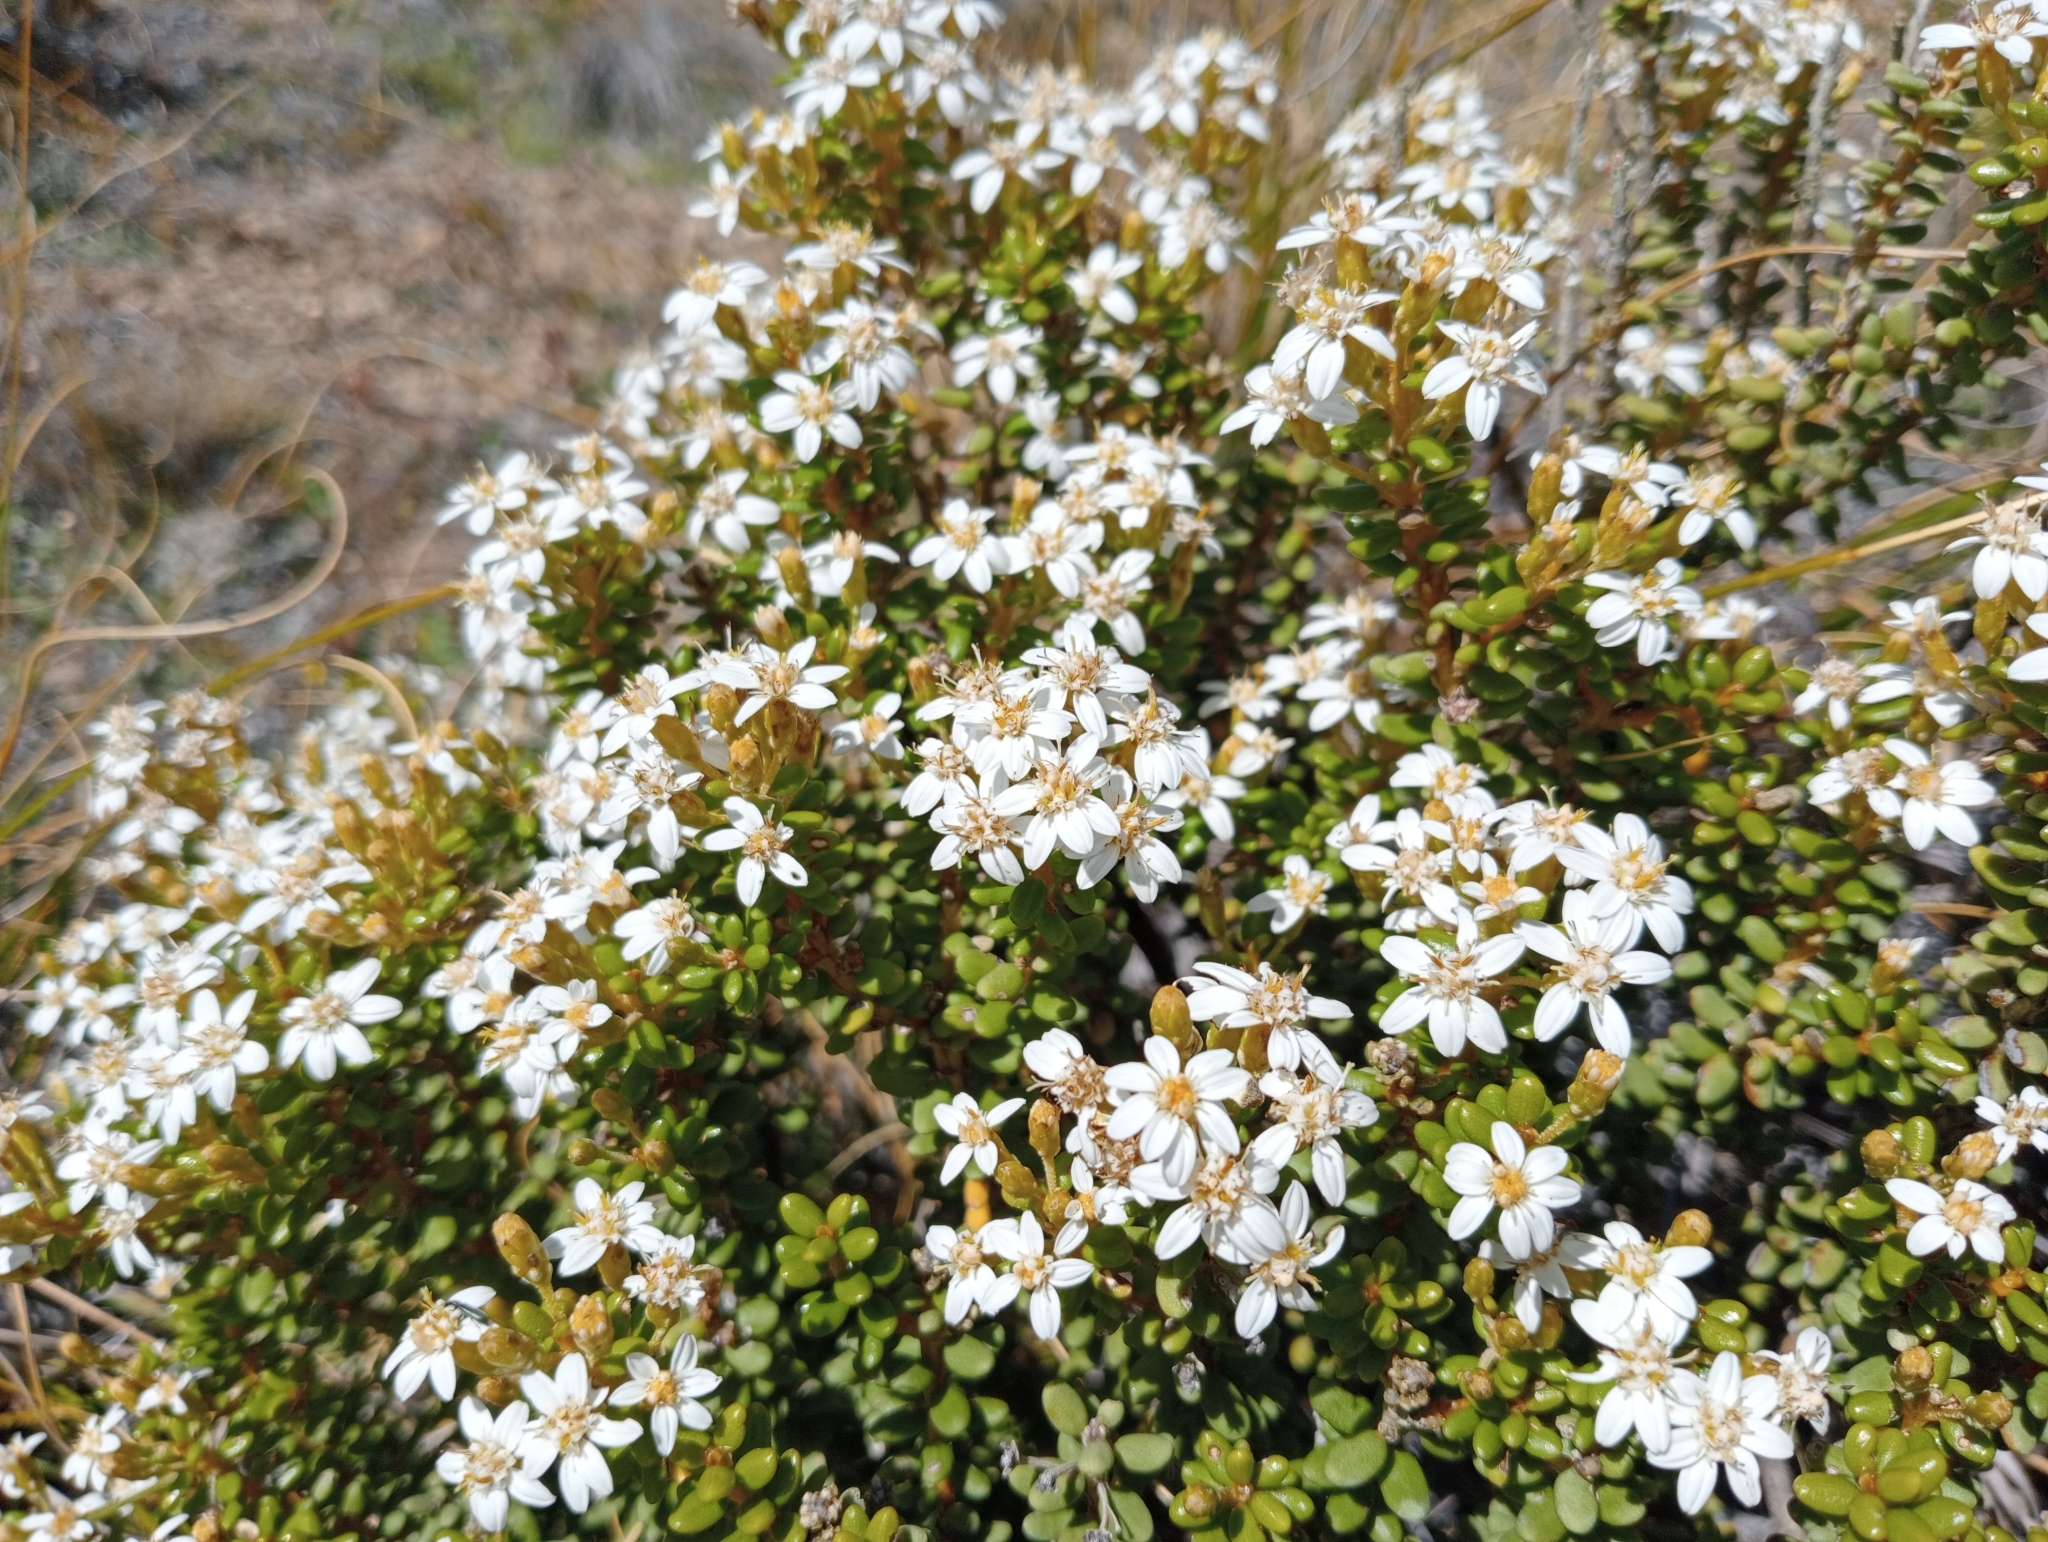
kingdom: Plantae
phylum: Tracheophyta
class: Magnoliopsida
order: Asterales
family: Asteraceae
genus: Olearia
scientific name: Olearia cymbifolia
